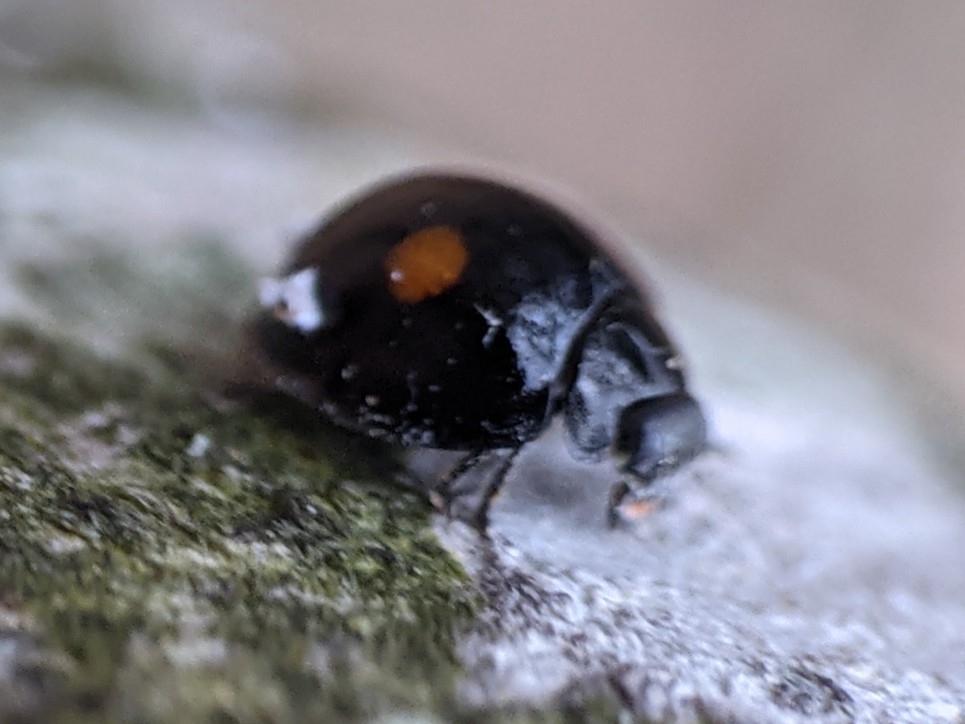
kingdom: Animalia
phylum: Arthropoda
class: Insecta
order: Coleoptera
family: Coccinellidae
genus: Chilocorus
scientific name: Chilocorus stigma
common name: Twicestabbed lady beetle
